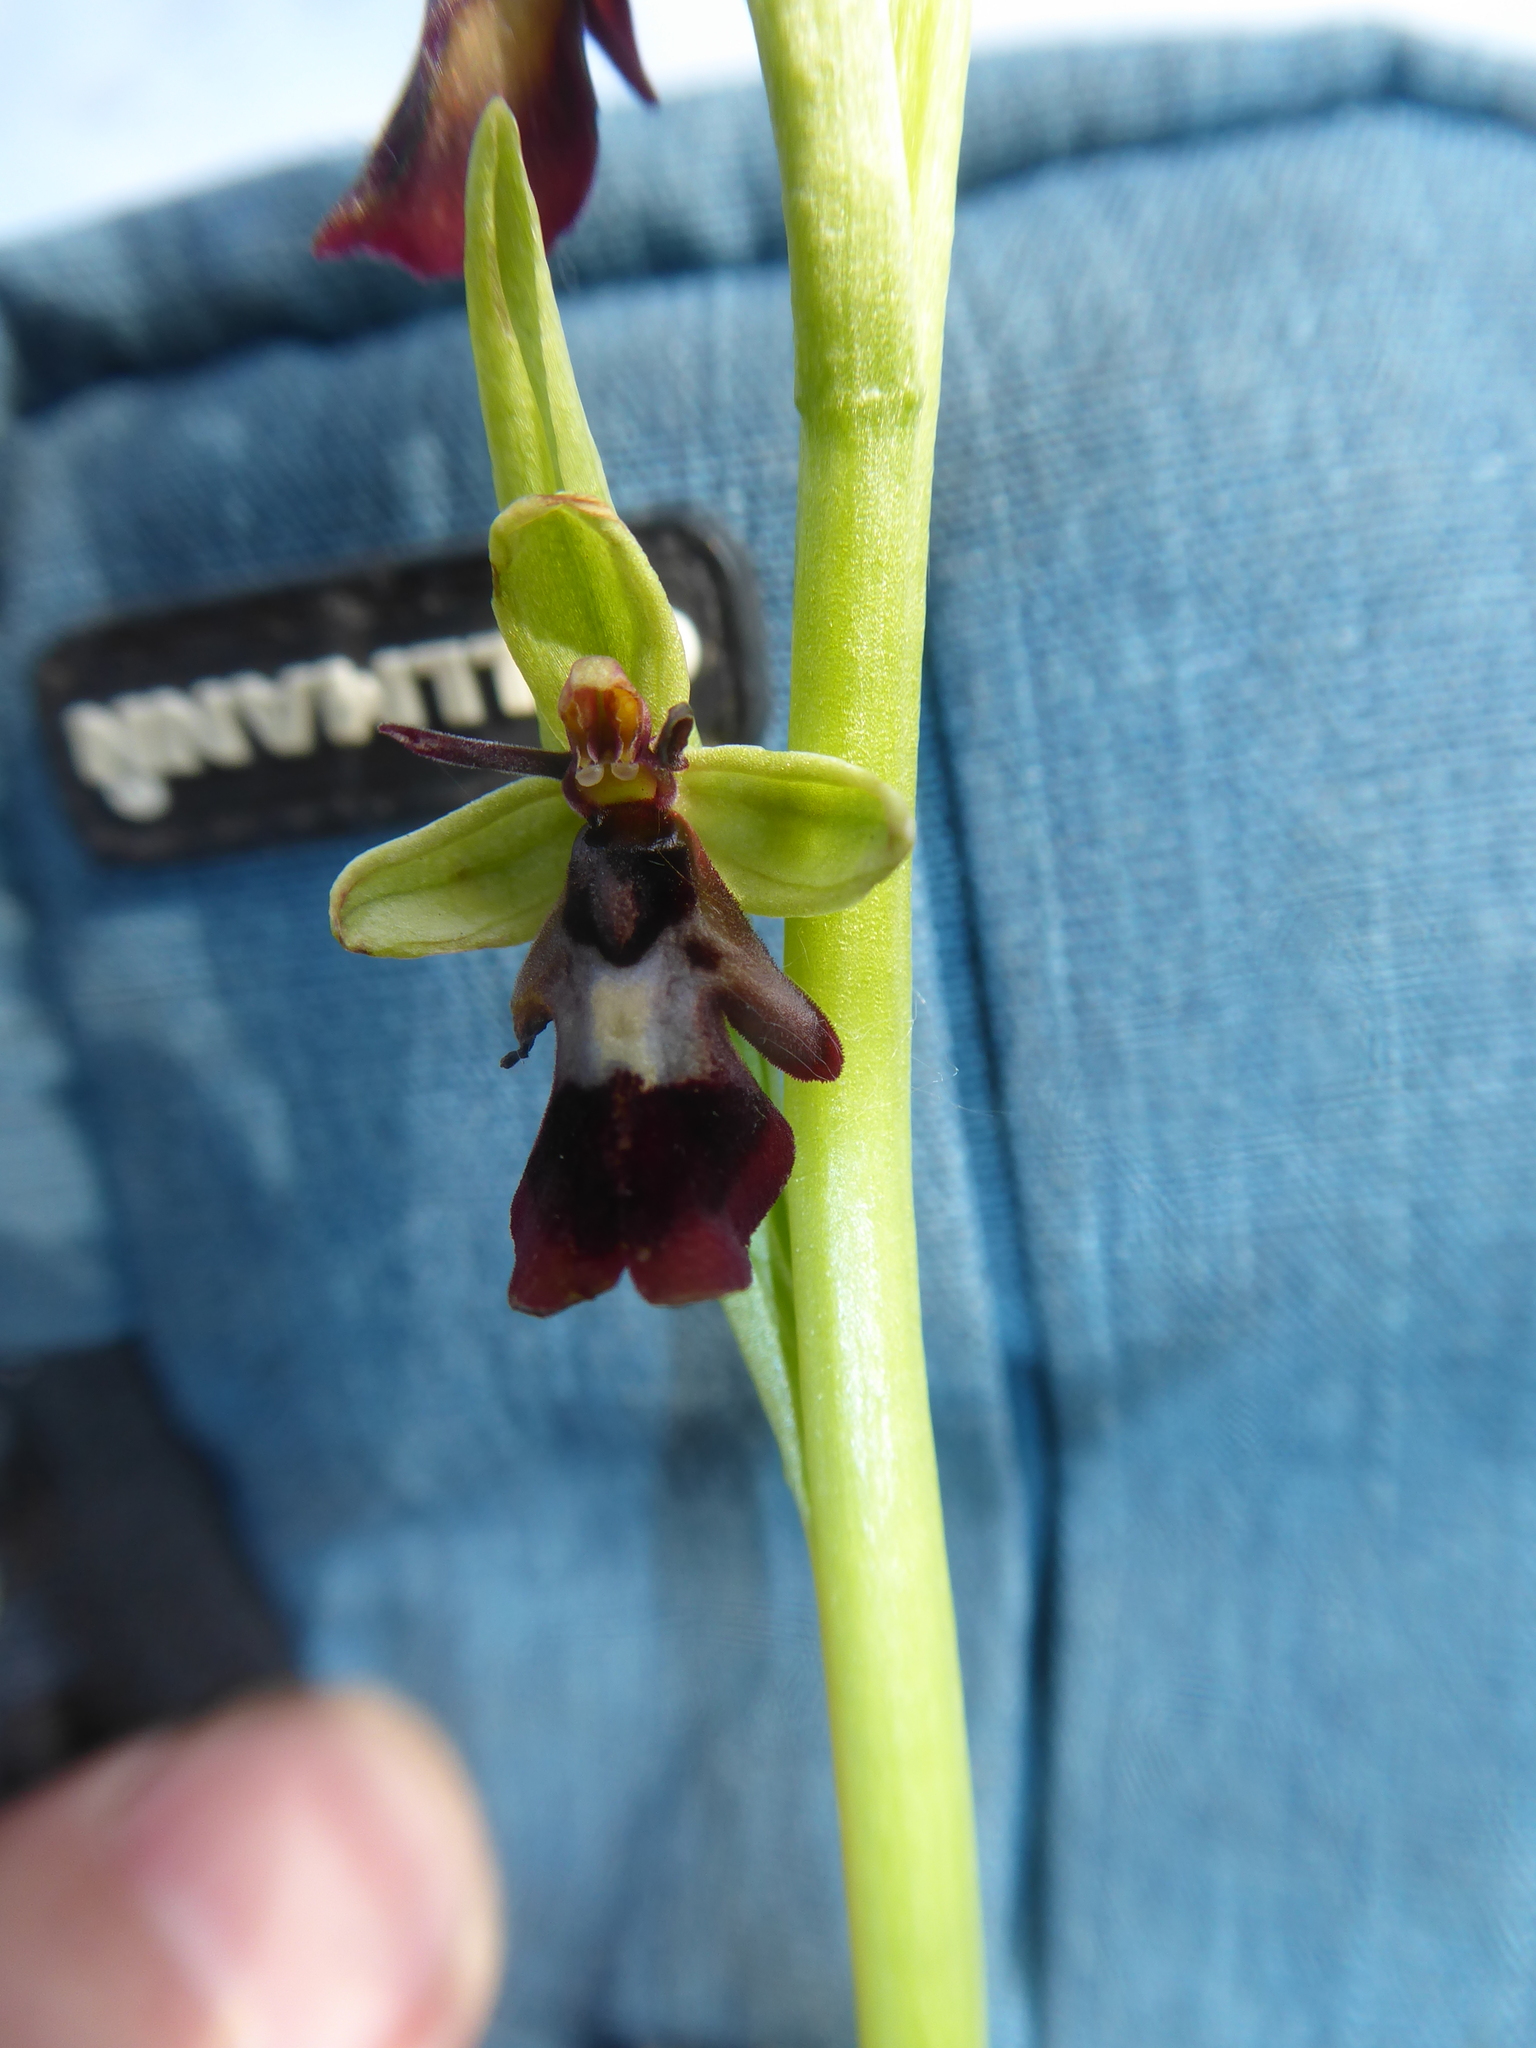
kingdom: Plantae
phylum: Tracheophyta
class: Liliopsida
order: Asparagales
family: Orchidaceae
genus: Ophrys
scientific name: Ophrys insectifera
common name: Fly orchid
